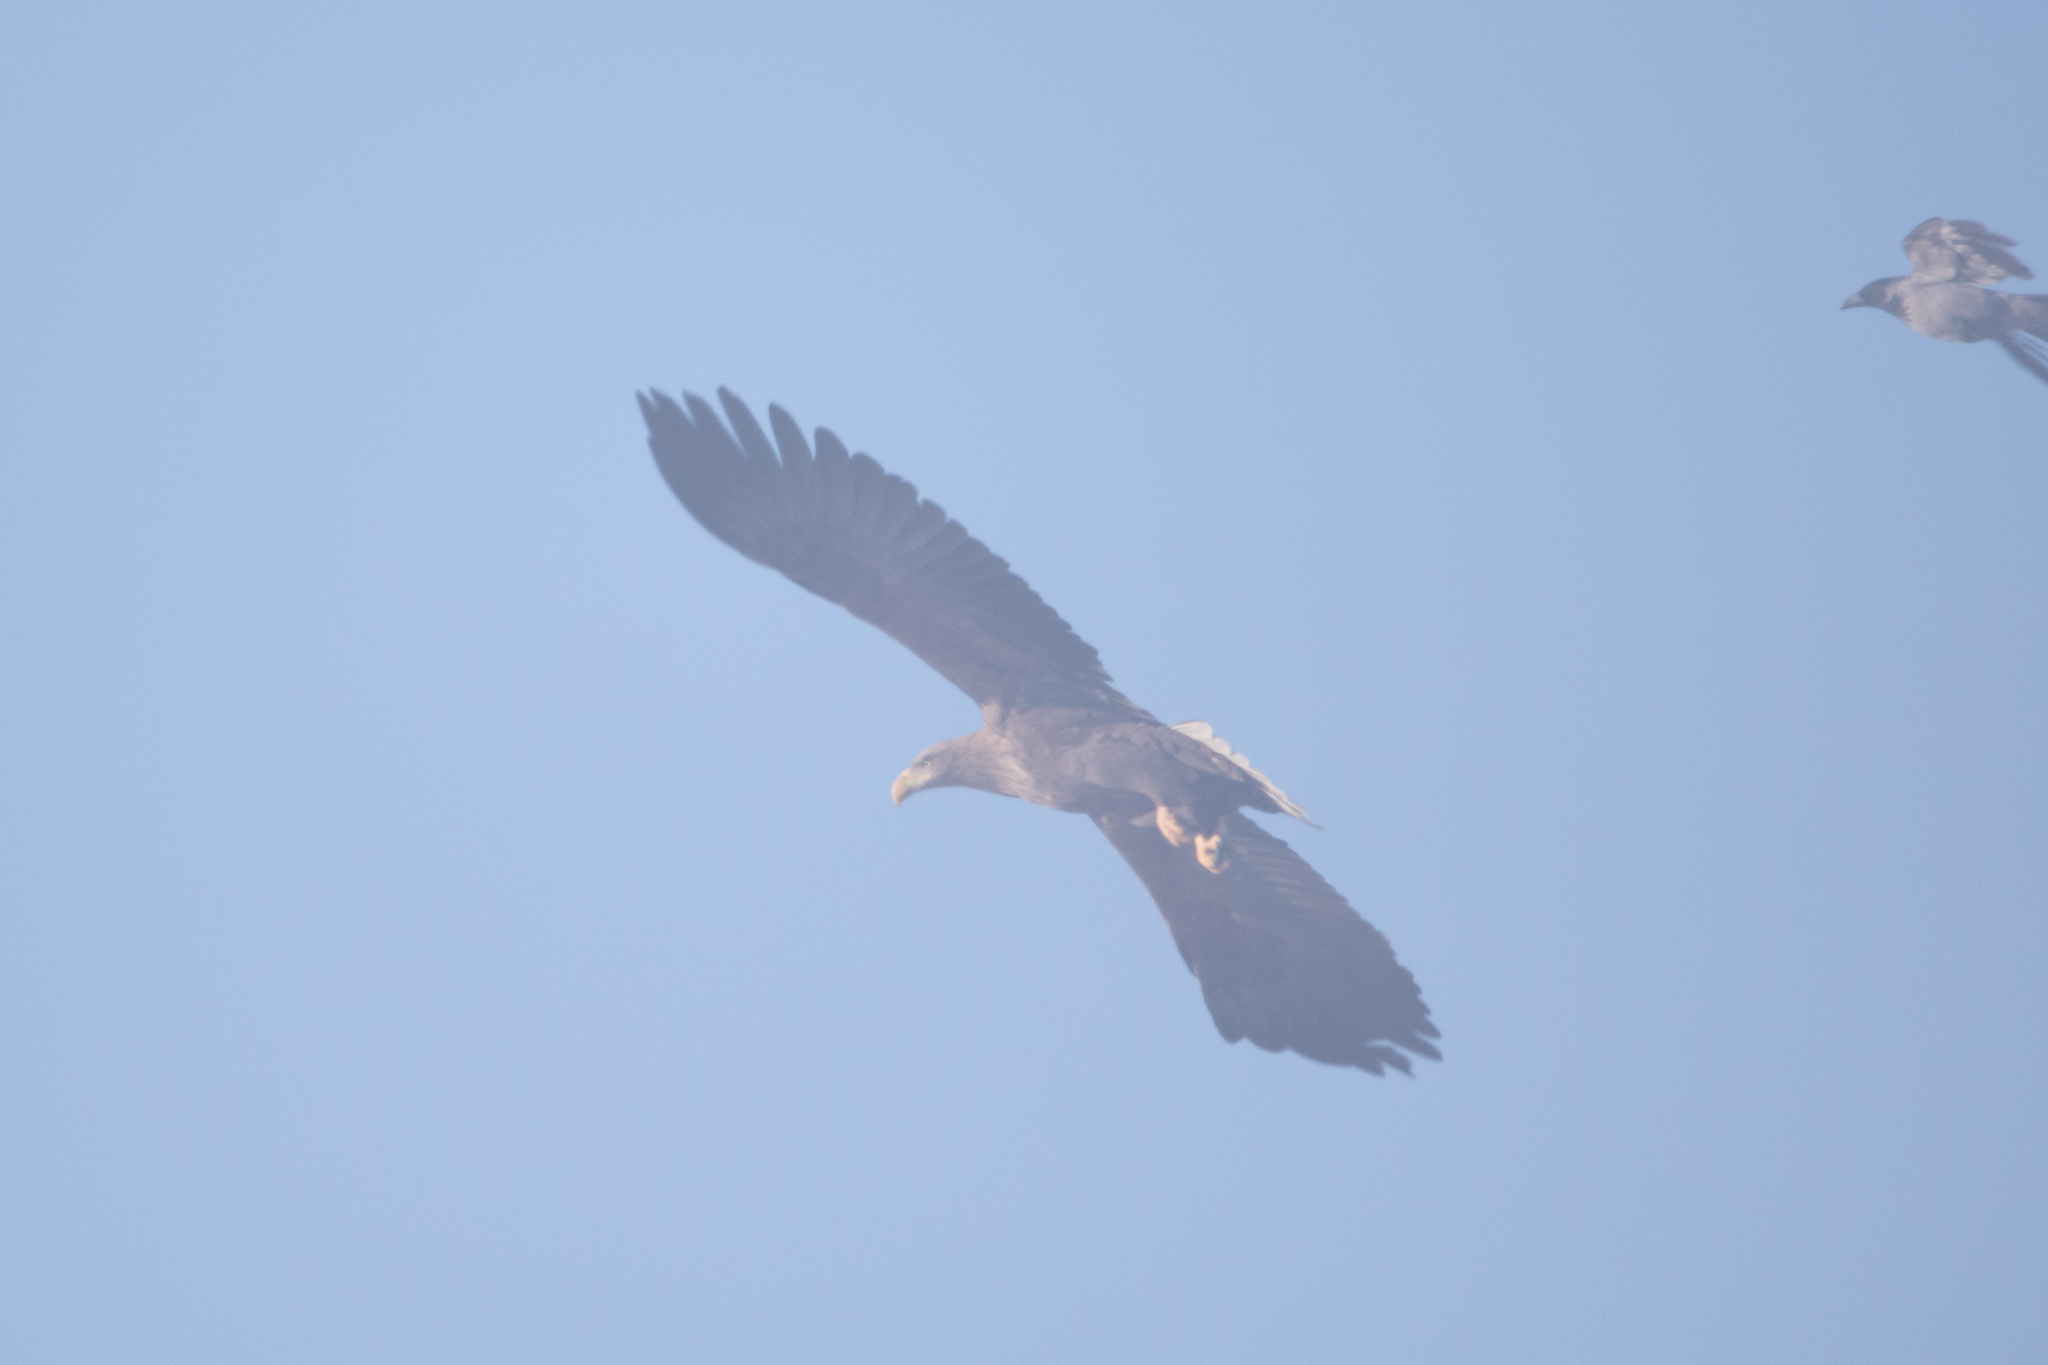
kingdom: Animalia
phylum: Chordata
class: Aves
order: Accipitriformes
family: Accipitridae
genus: Haliaeetus
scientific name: Haliaeetus albicilla
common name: White-tailed eagle
